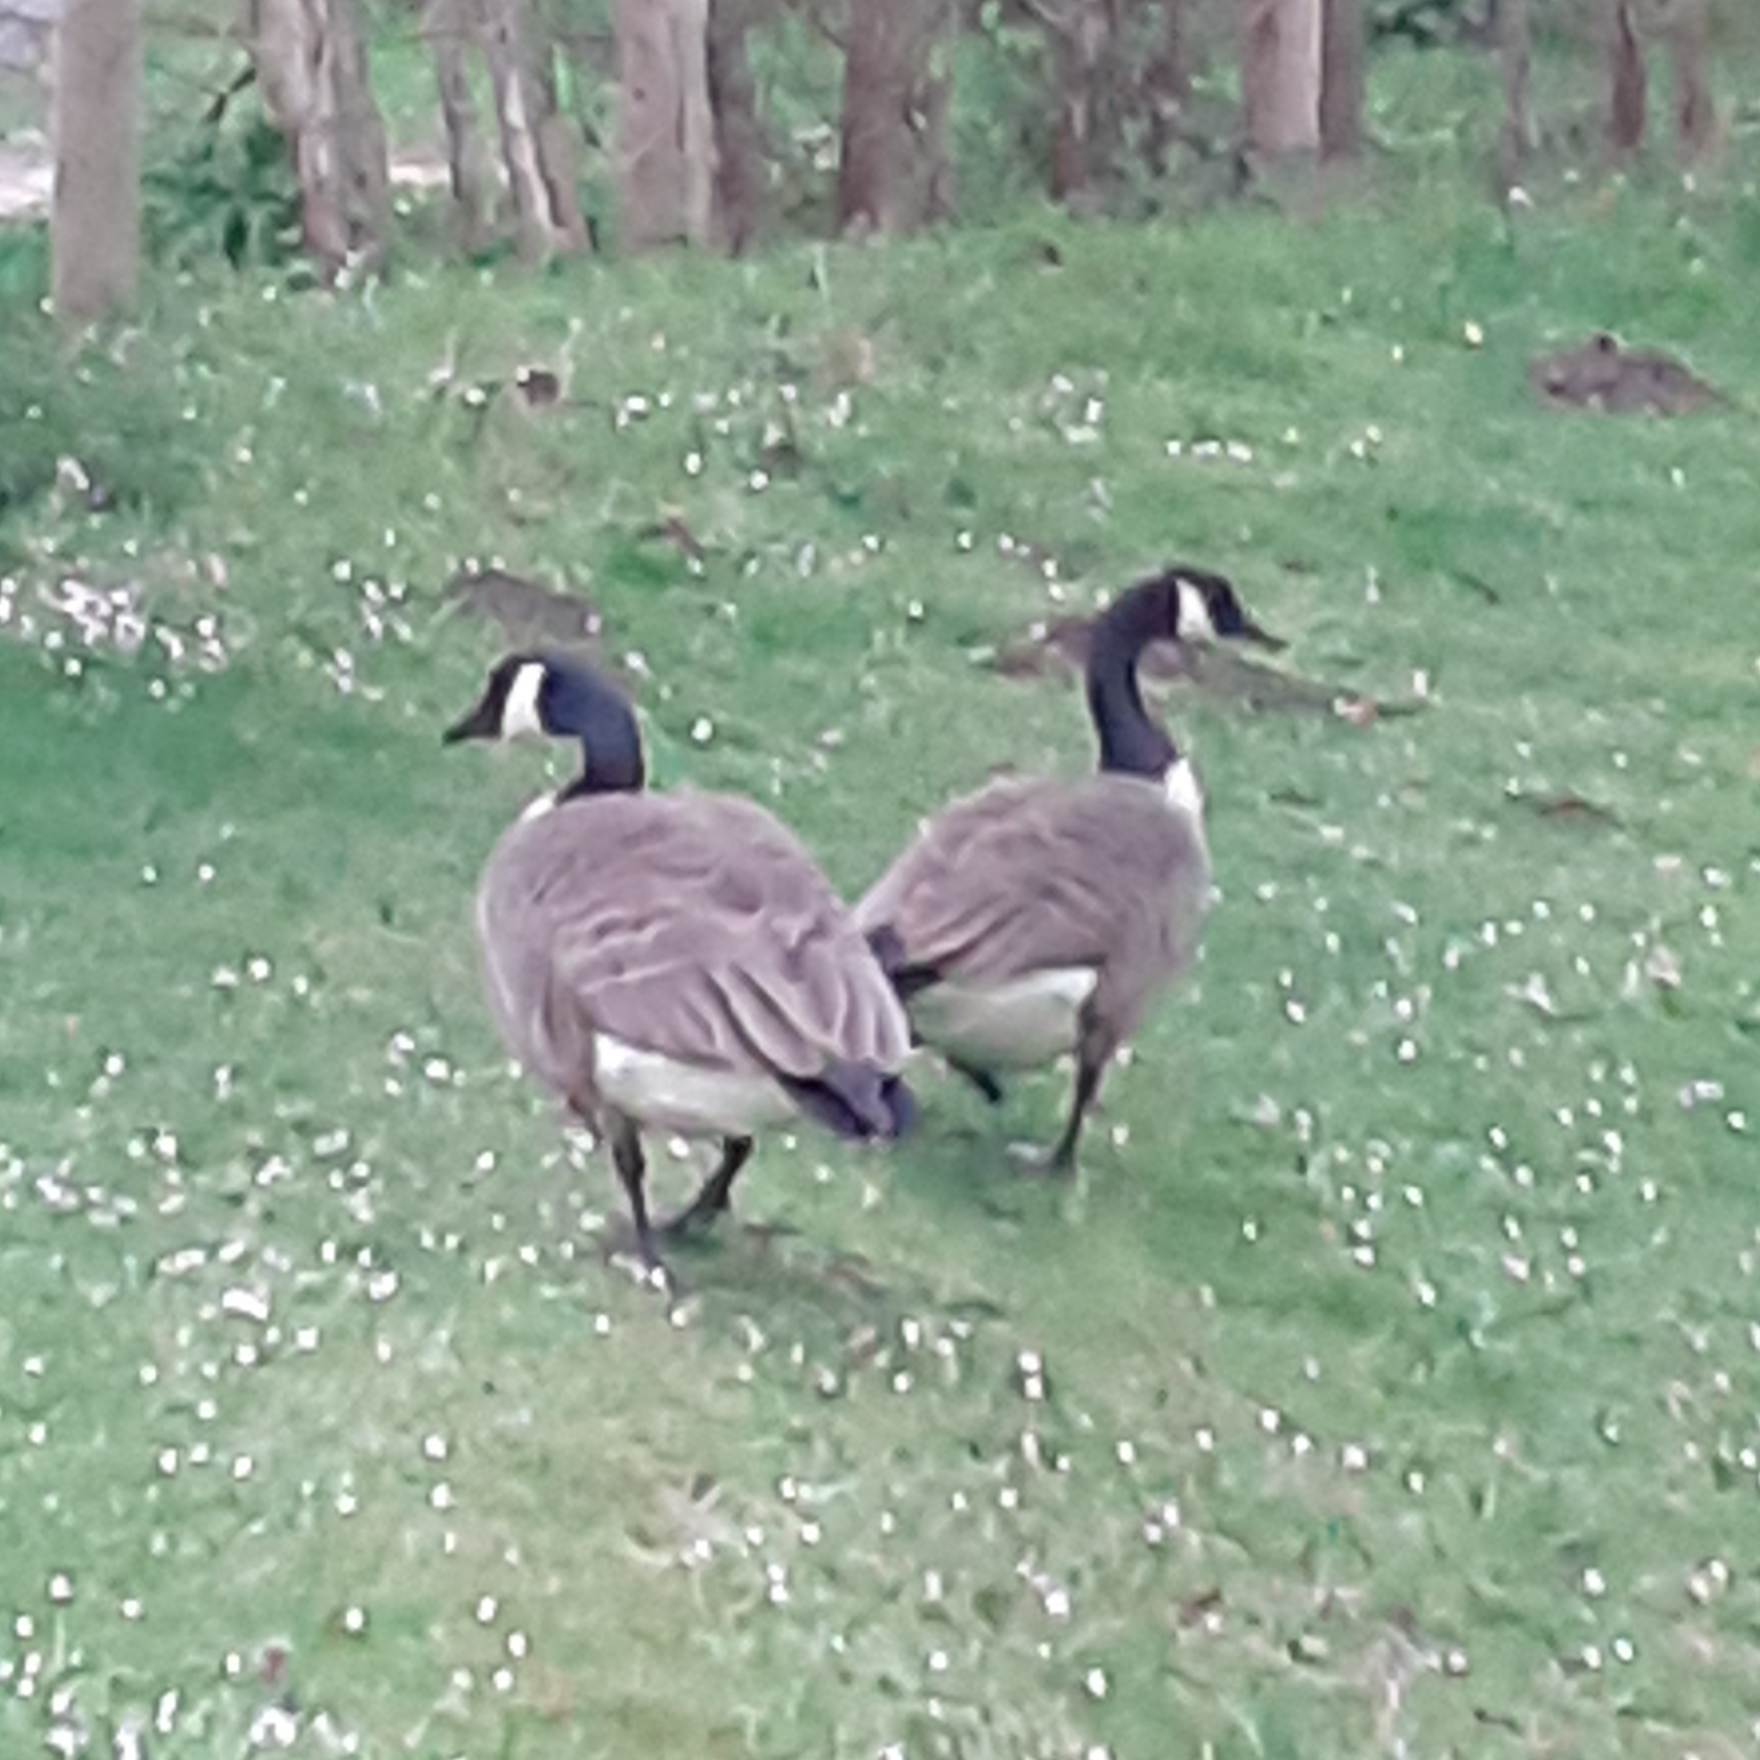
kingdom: Animalia
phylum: Chordata
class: Aves
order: Anseriformes
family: Anatidae
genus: Branta
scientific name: Branta canadensis
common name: Canada goose
